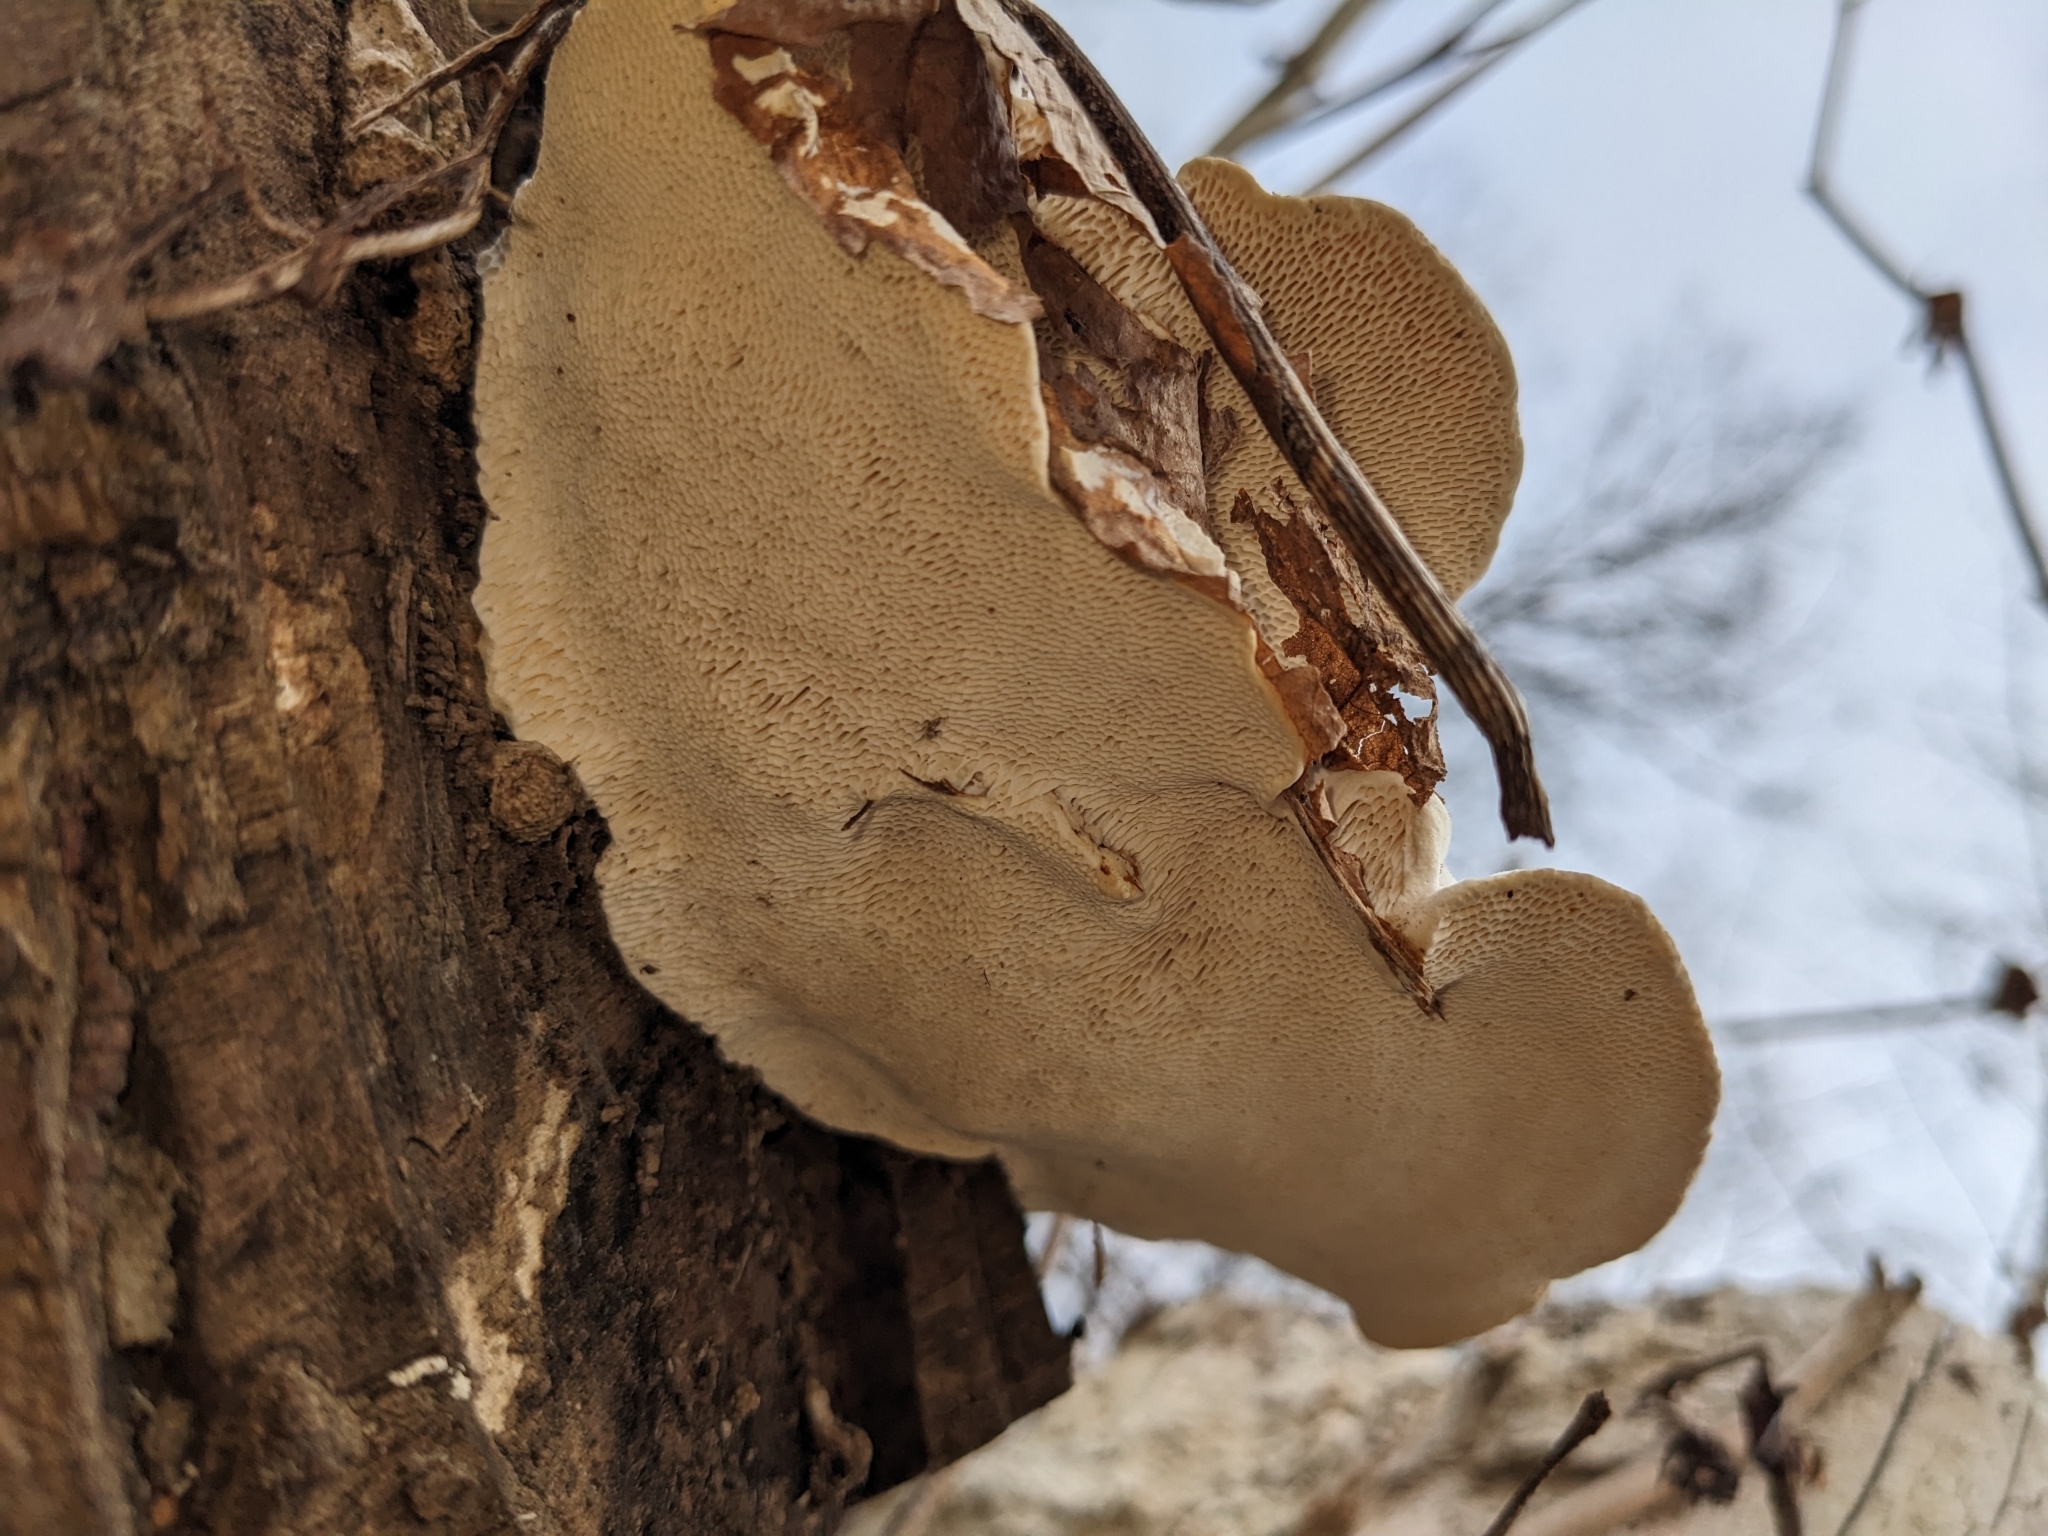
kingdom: Fungi
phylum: Basidiomycota
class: Agaricomycetes
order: Polyporales
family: Polyporaceae
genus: Trametes
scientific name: Trametes gibbosa
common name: Lumpy bracket
